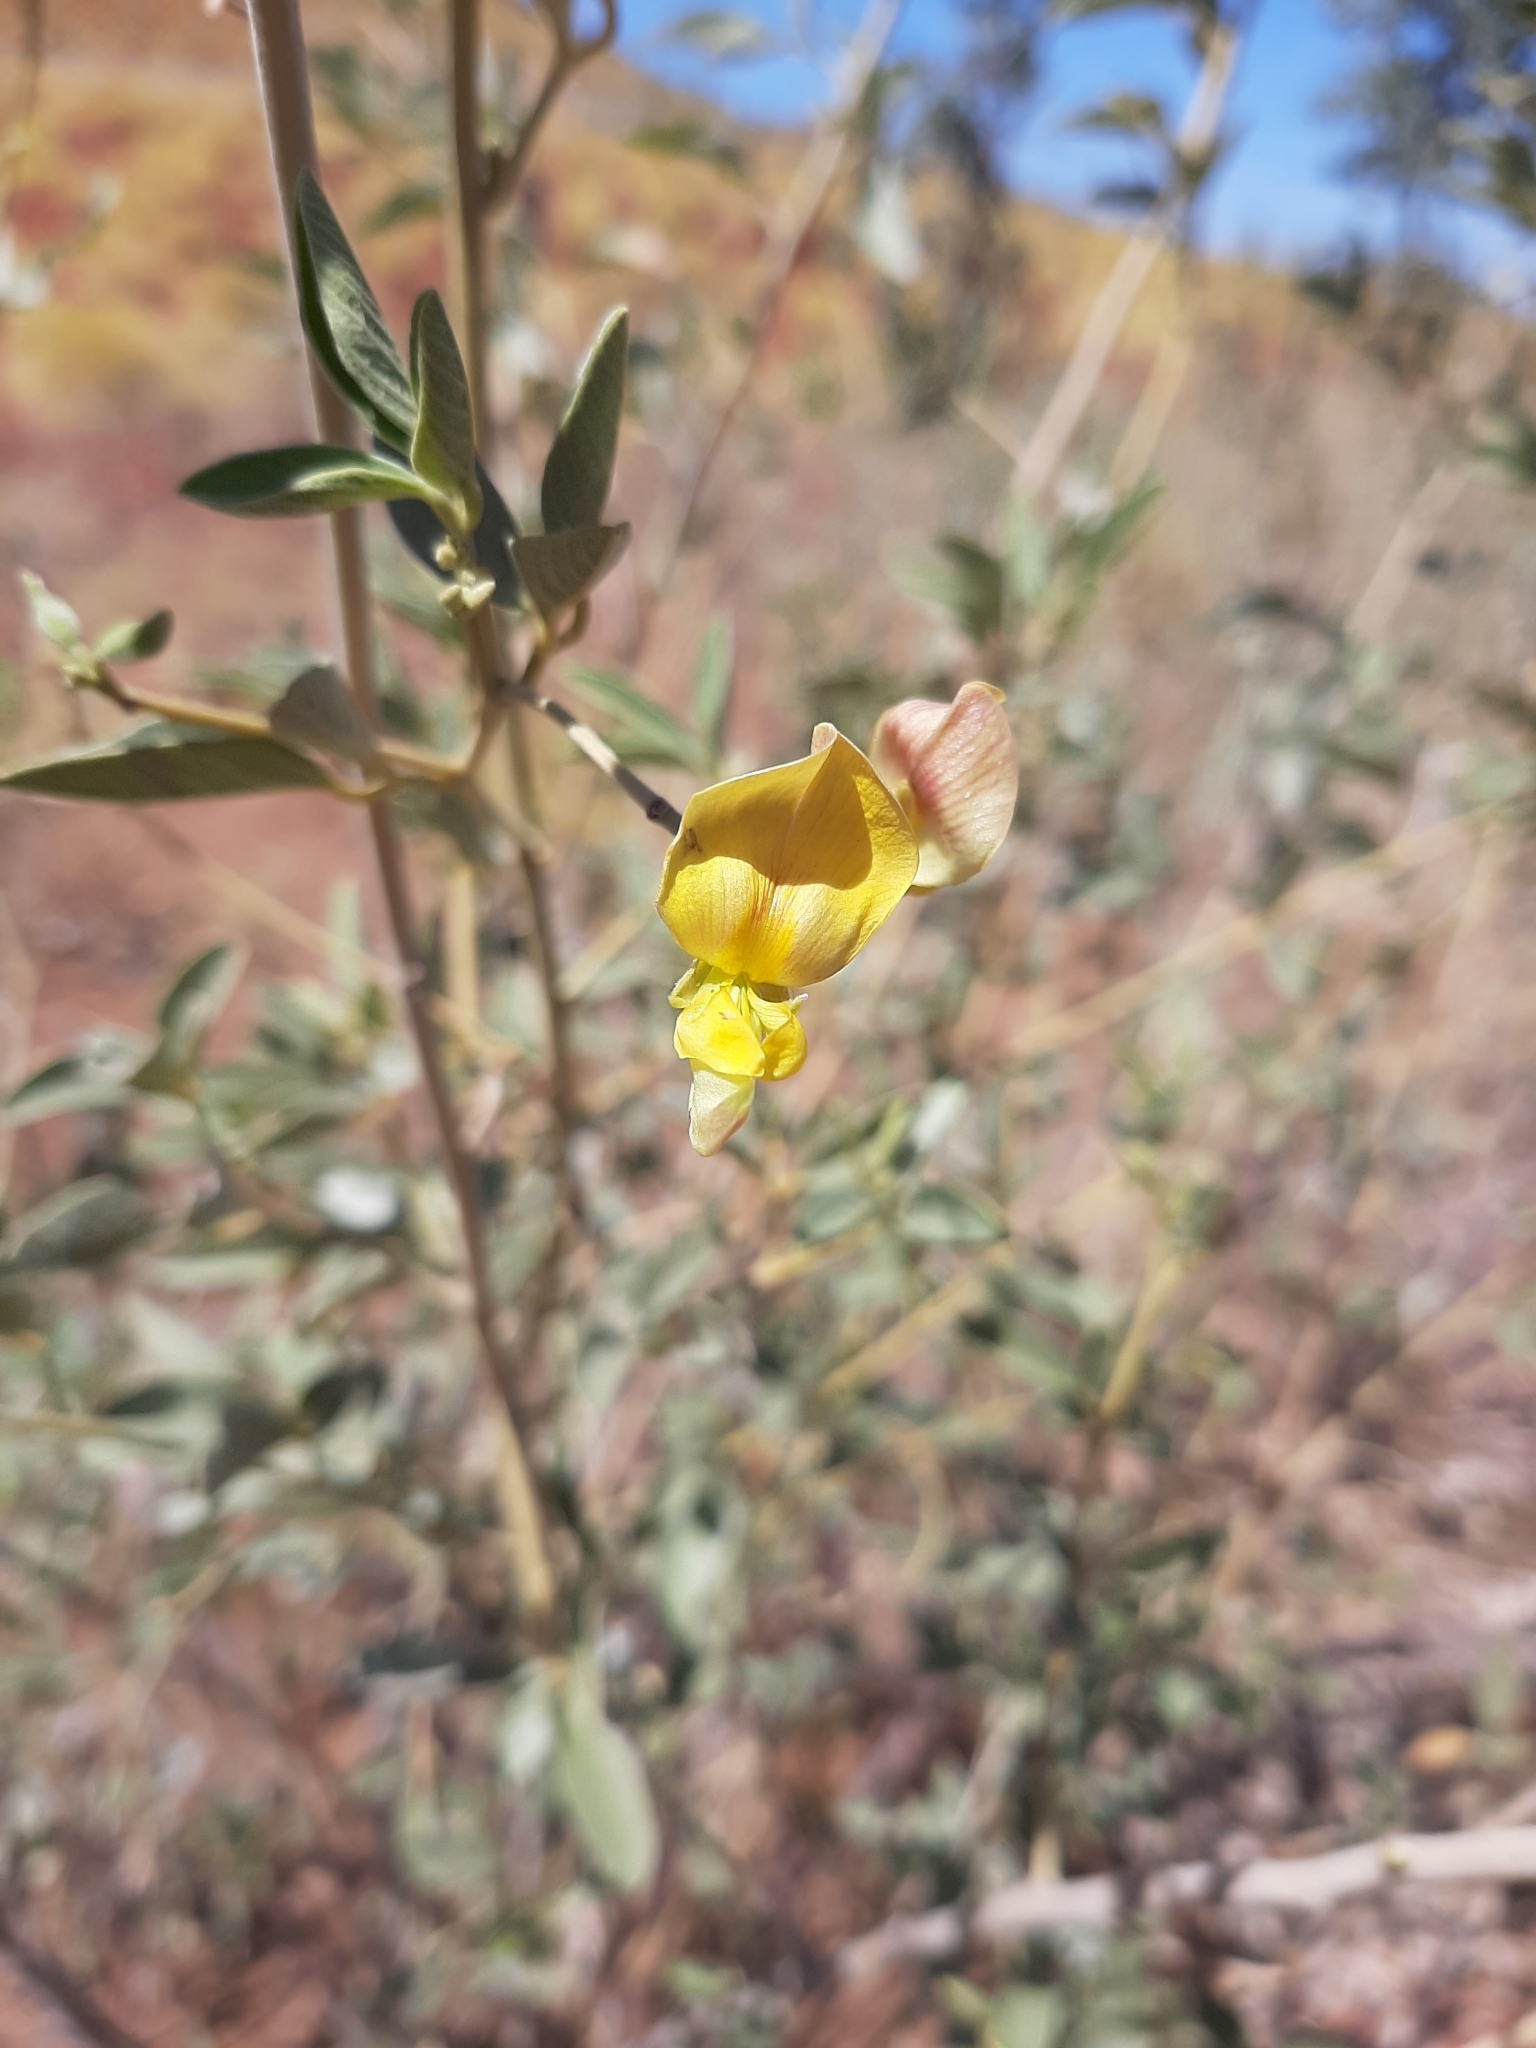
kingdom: Plantae
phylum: Tracheophyta
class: Magnoliopsida
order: Fabales
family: Fabaceae
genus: Cajanus
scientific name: Cajanus pubescens
